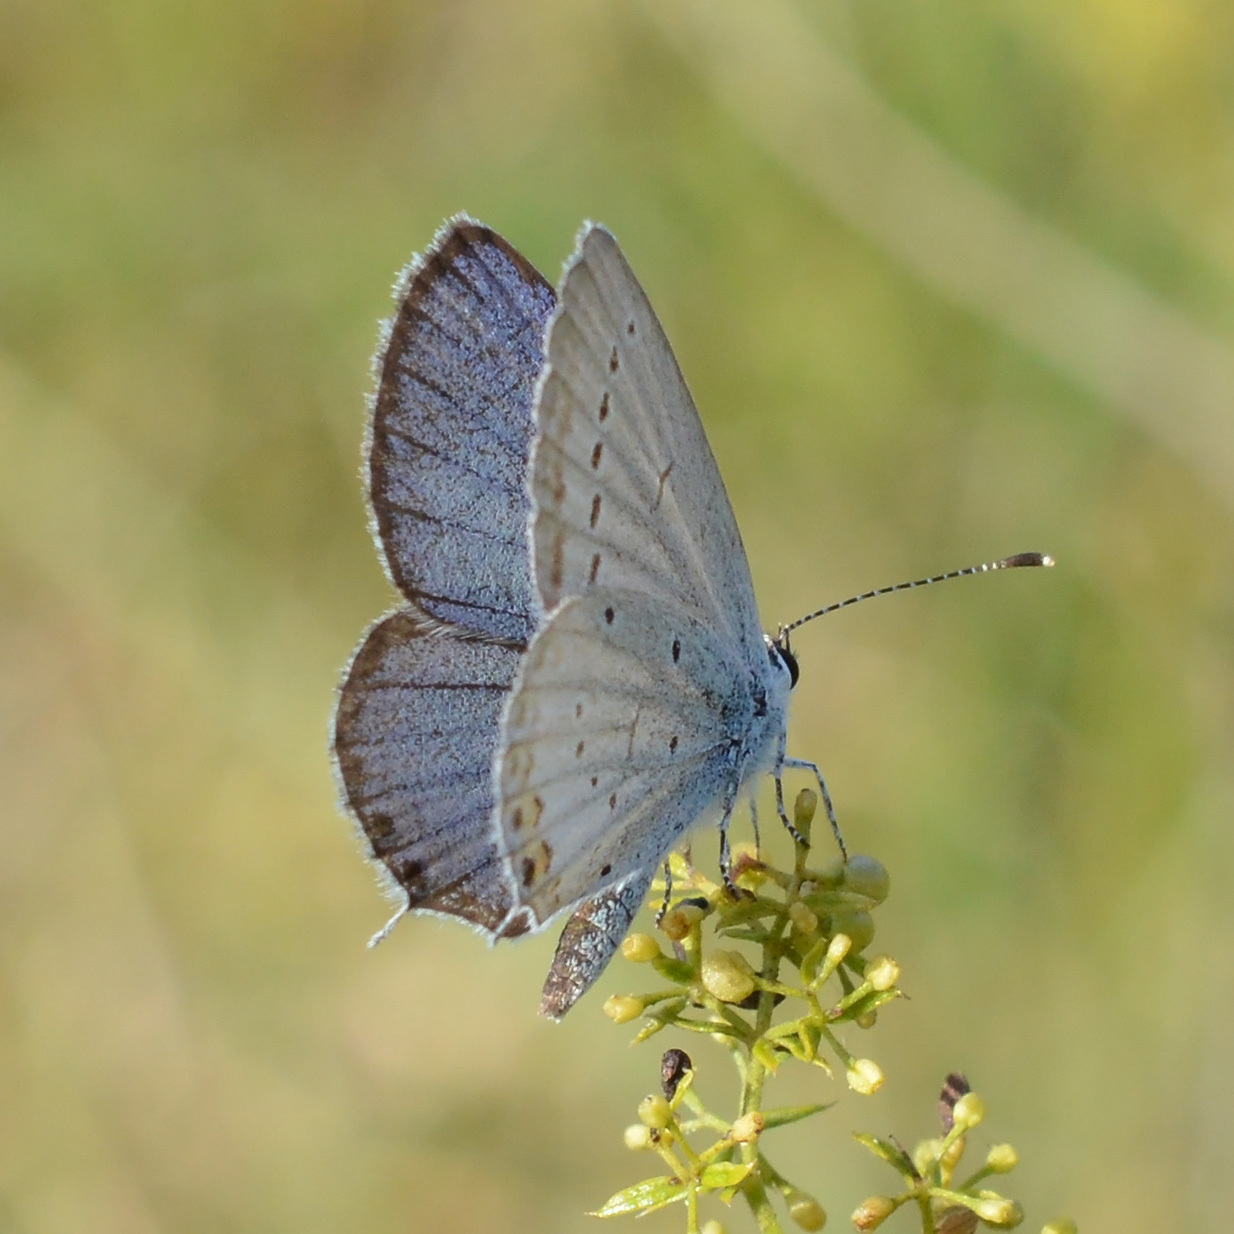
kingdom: Animalia
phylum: Arthropoda
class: Insecta
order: Lepidoptera
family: Lycaenidae
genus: Elkalyce
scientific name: Elkalyce argiades
